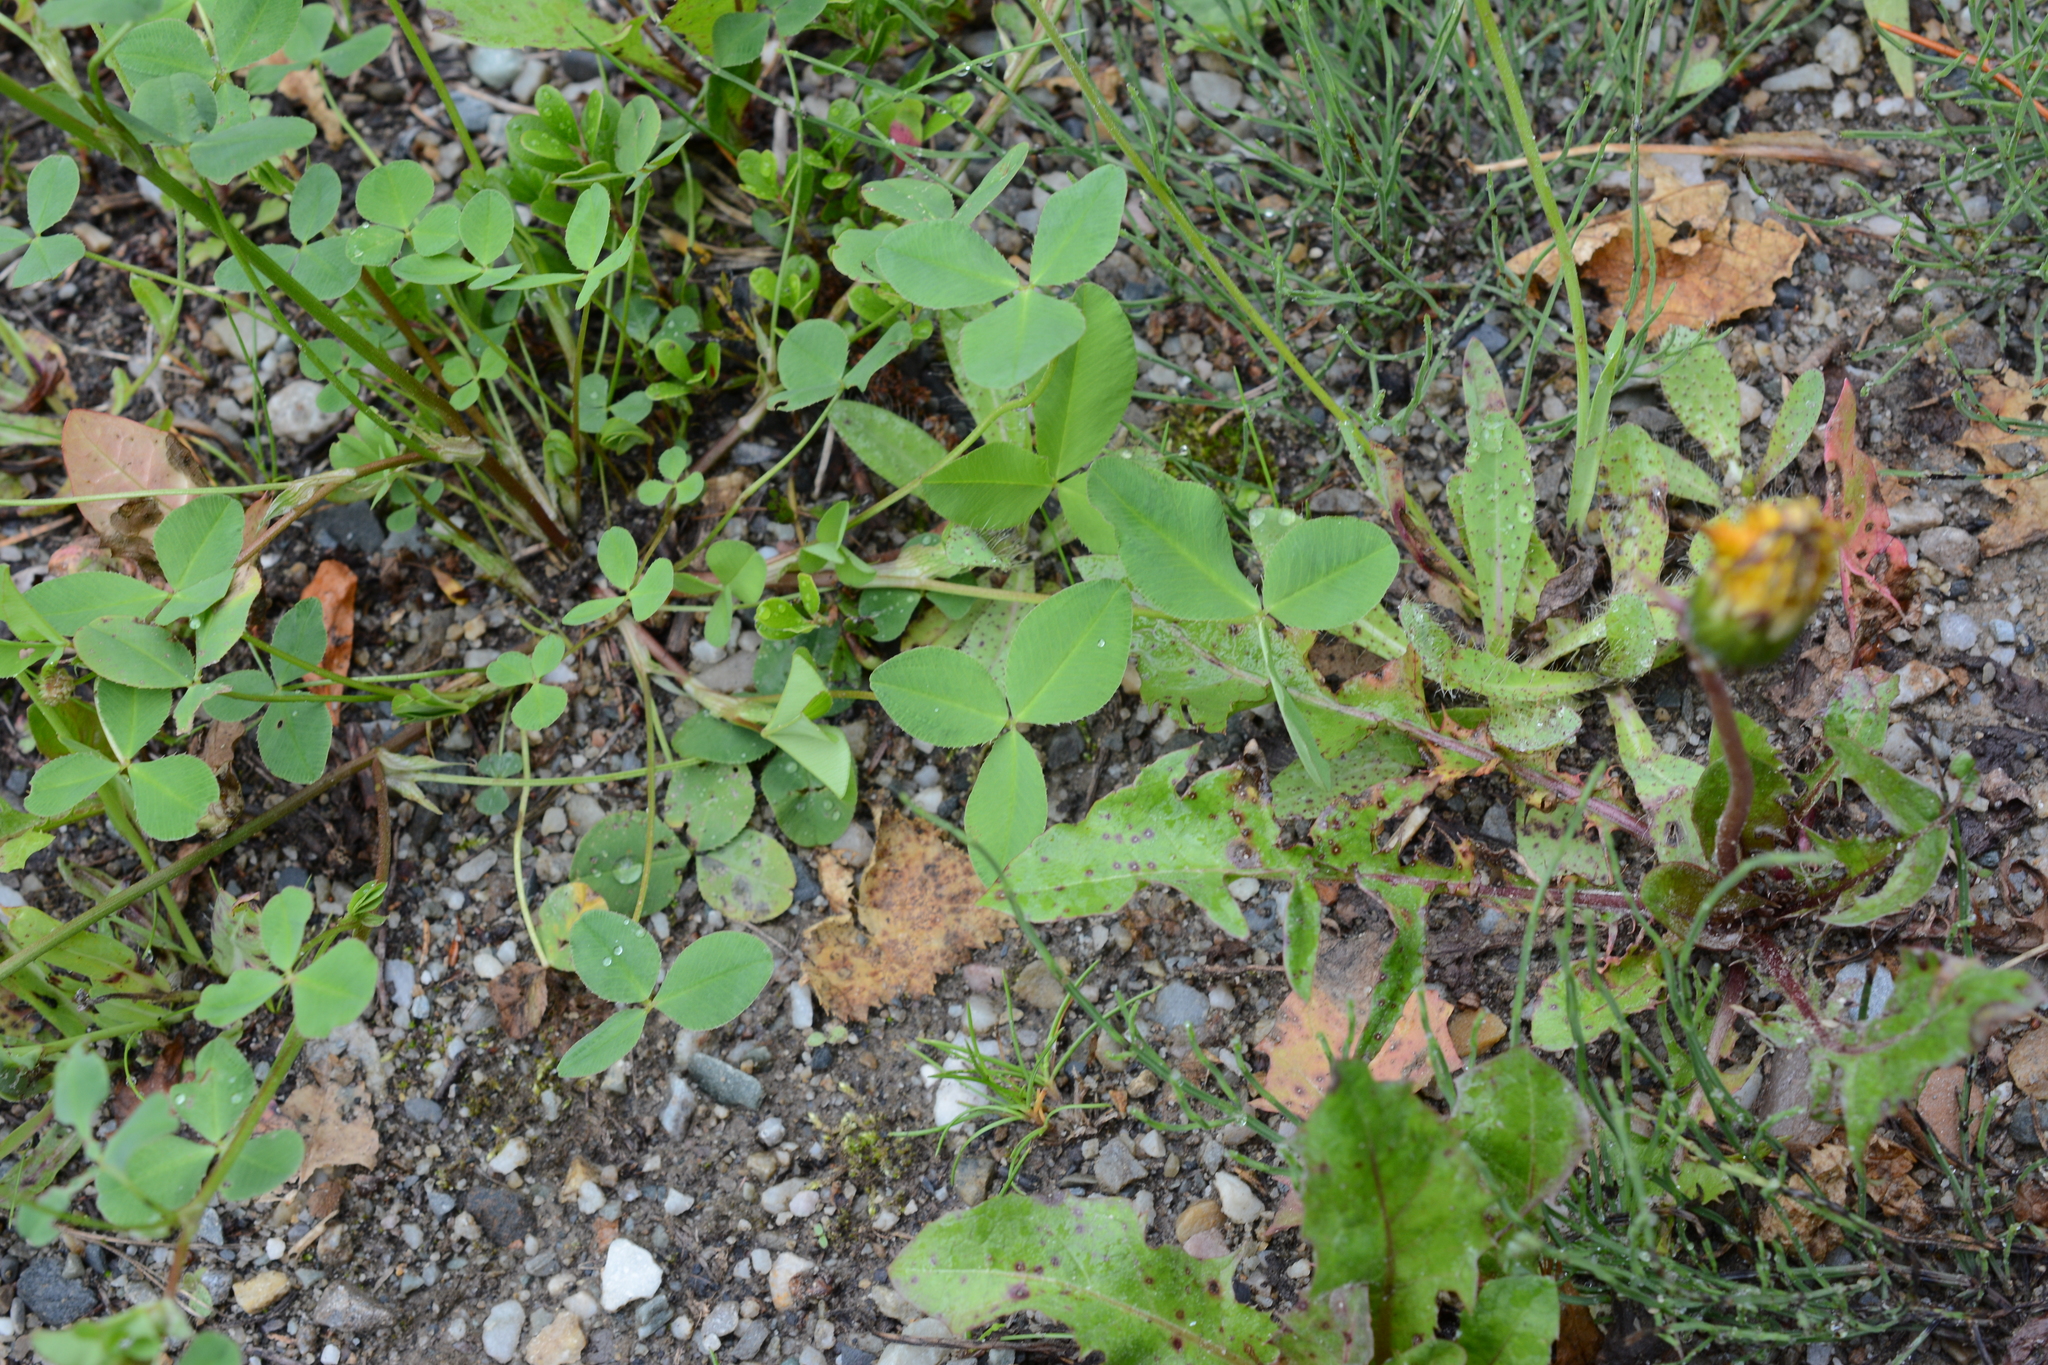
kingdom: Plantae
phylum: Tracheophyta
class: Magnoliopsida
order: Fabales
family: Fabaceae
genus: Trifolium
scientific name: Trifolium hybridum
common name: Alsike clover
